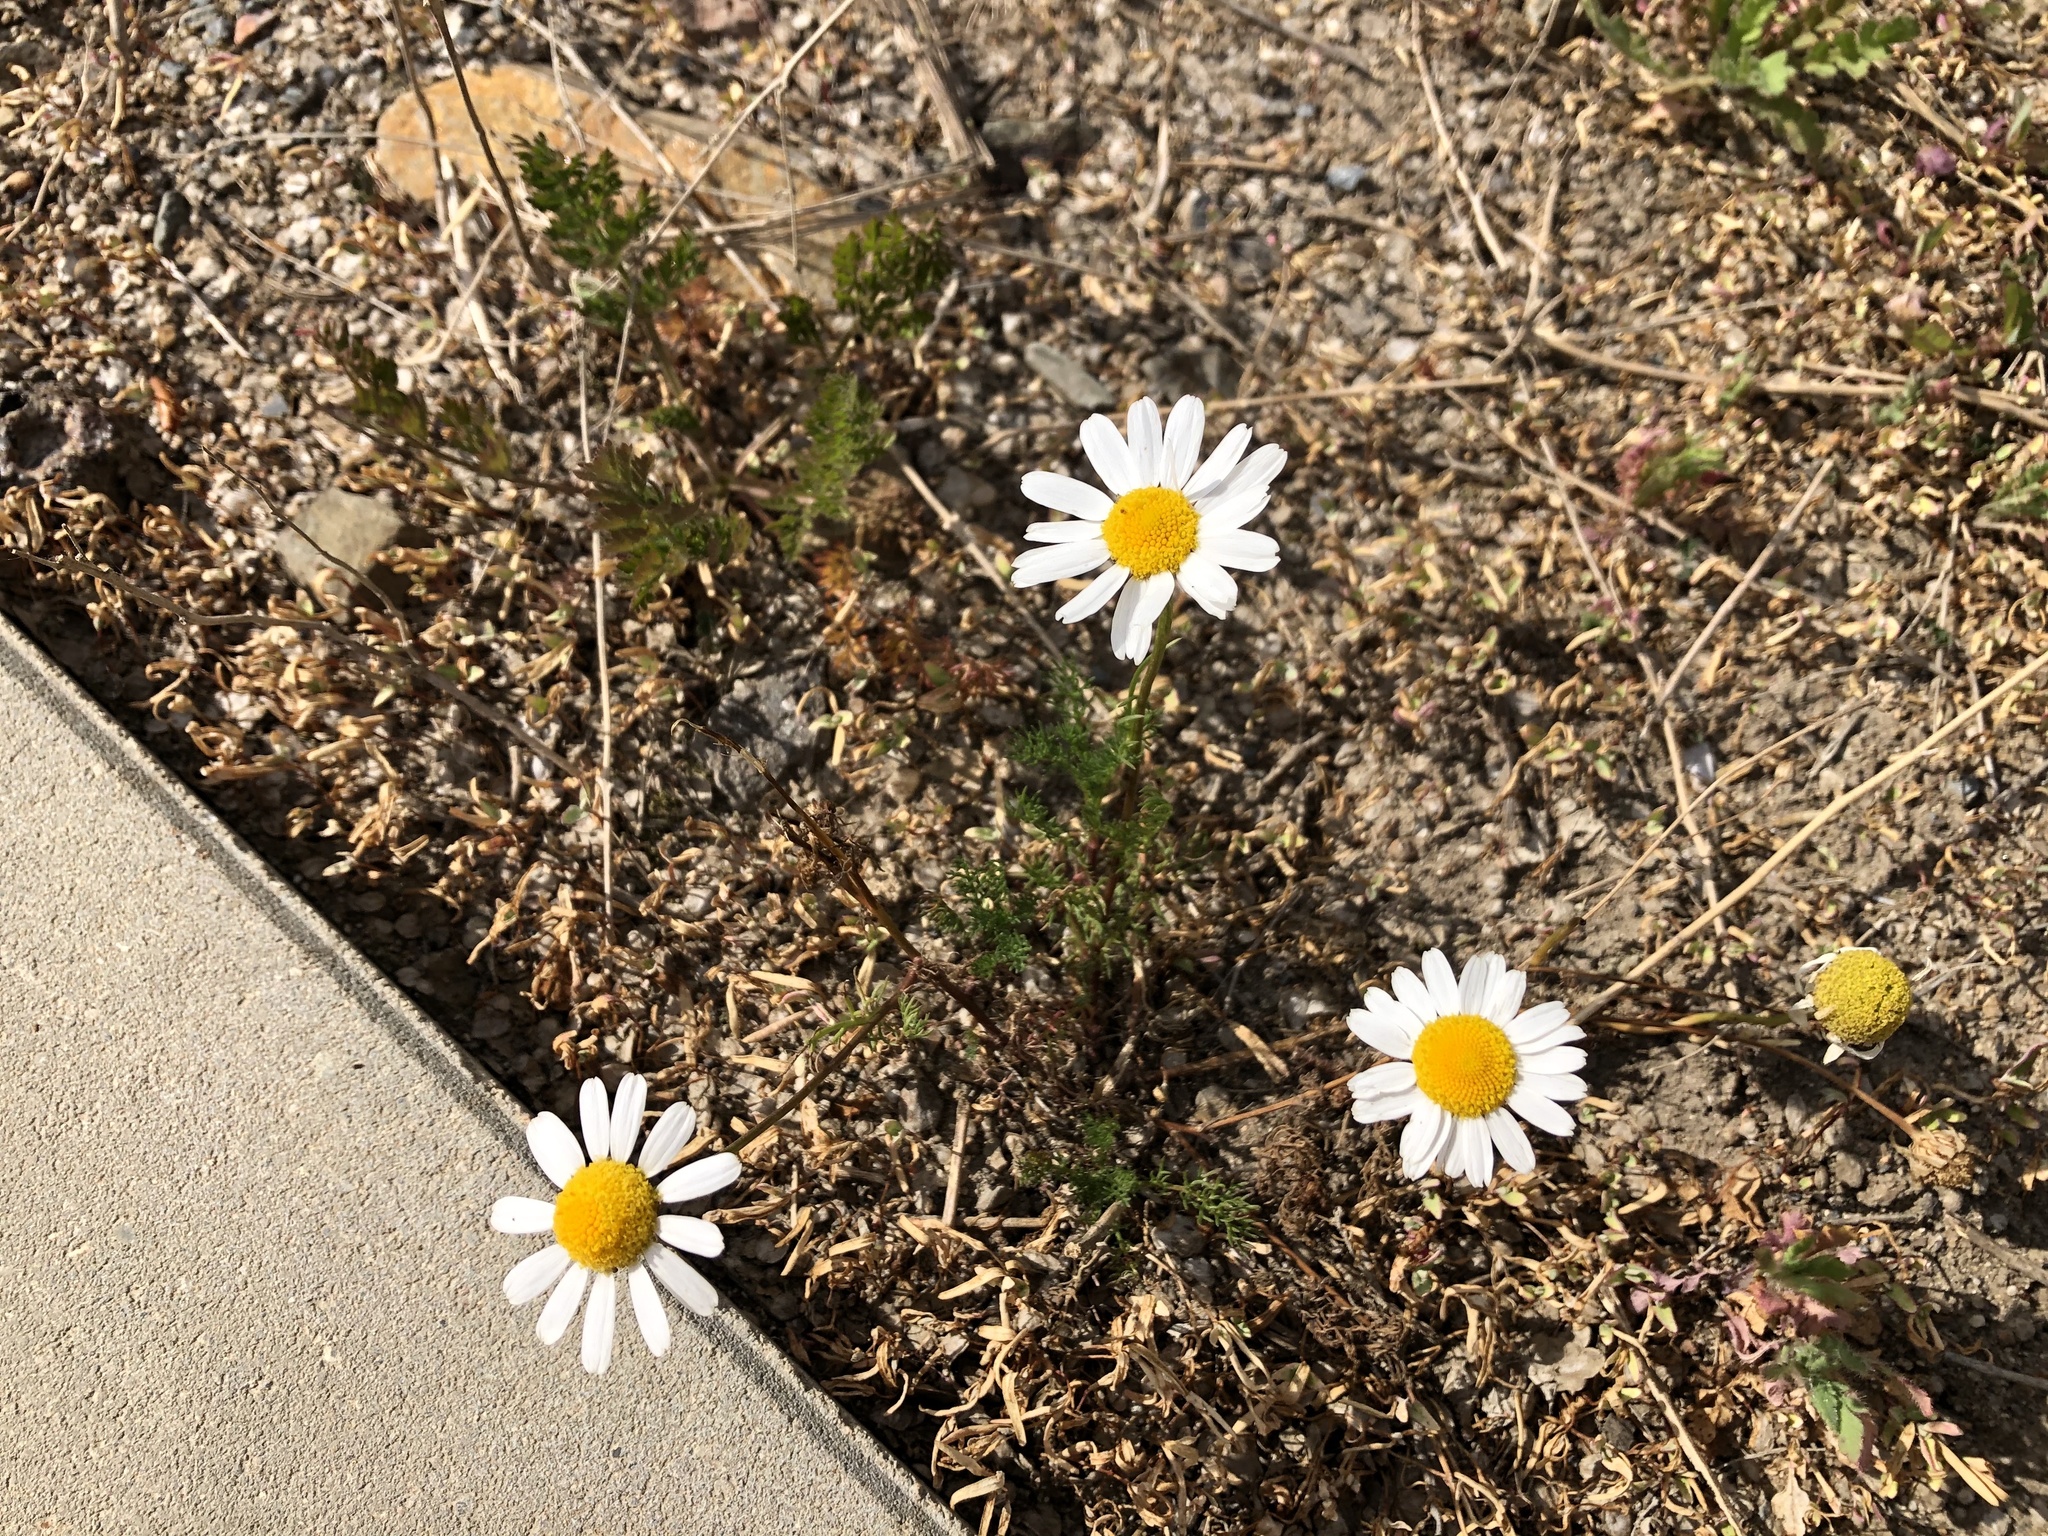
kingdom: Plantae
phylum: Tracheophyta
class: Magnoliopsida
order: Asterales
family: Asteraceae
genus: Tripleurospermum
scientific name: Tripleurospermum inodorum
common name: Scentless mayweed
